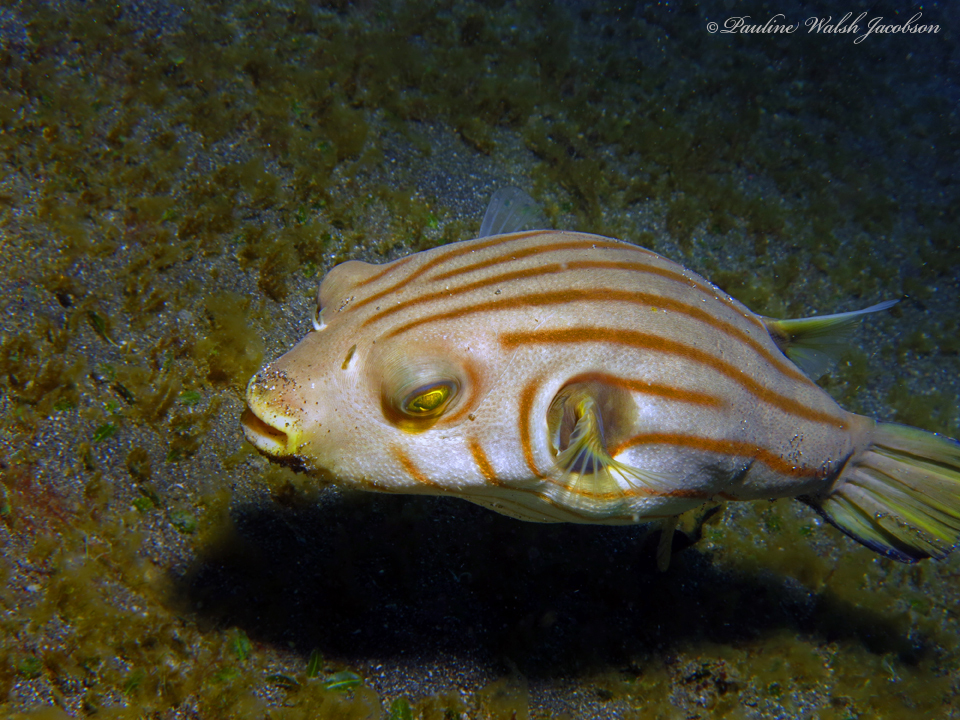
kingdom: Animalia
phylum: Chordata
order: Tetraodontiformes
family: Tetraodontidae
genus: Arothron
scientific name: Arothron manilensis
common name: Narrow-lined puffer
